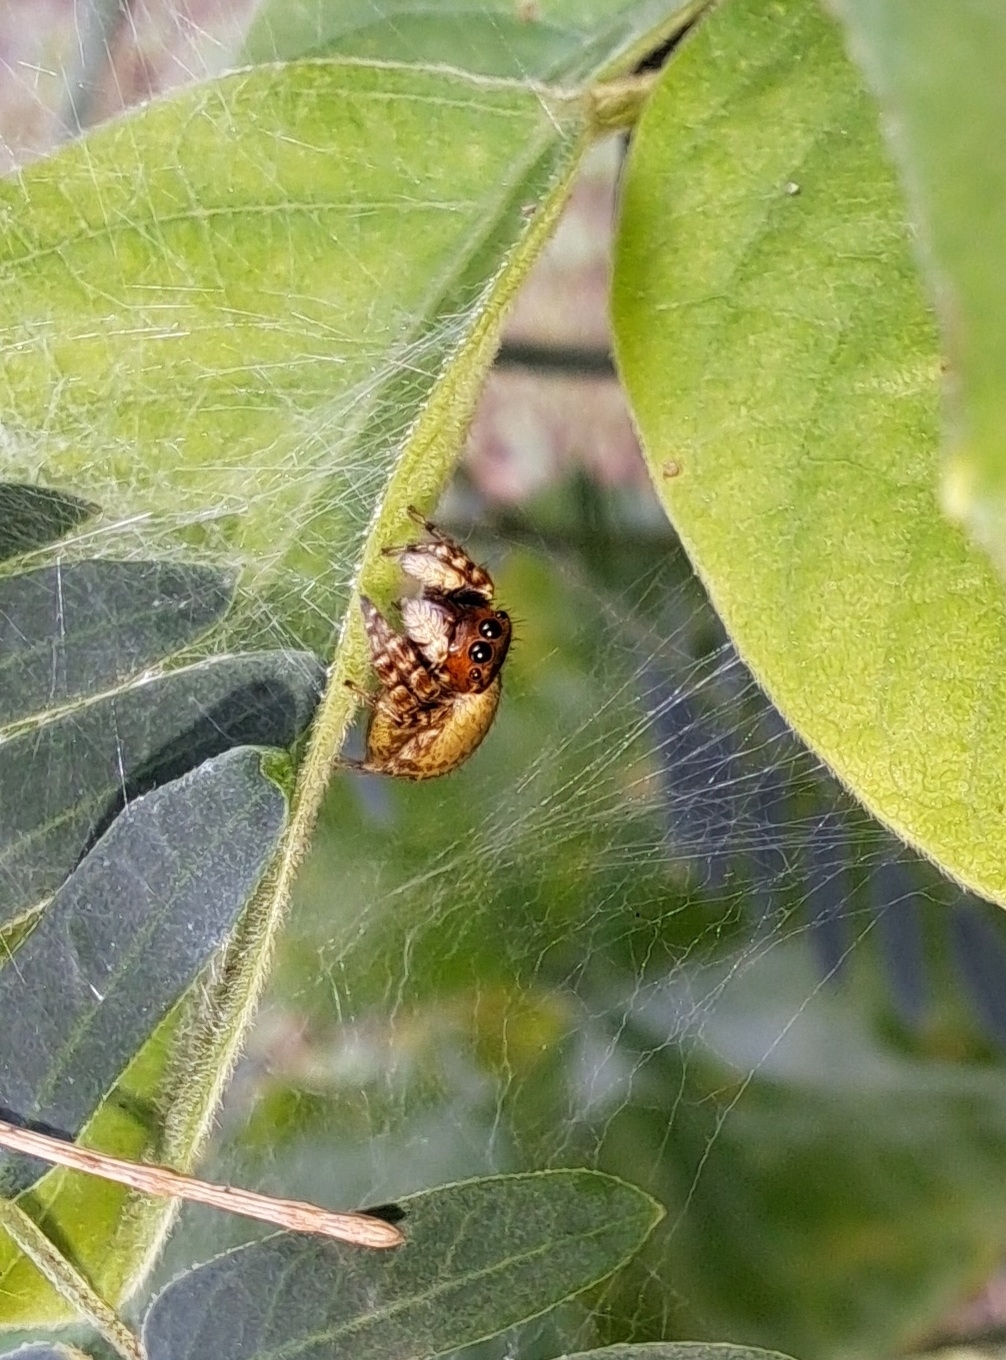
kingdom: Animalia
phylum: Arthropoda
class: Arachnida
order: Araneae
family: Salticidae
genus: Carrhotus
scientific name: Carrhotus sannio
